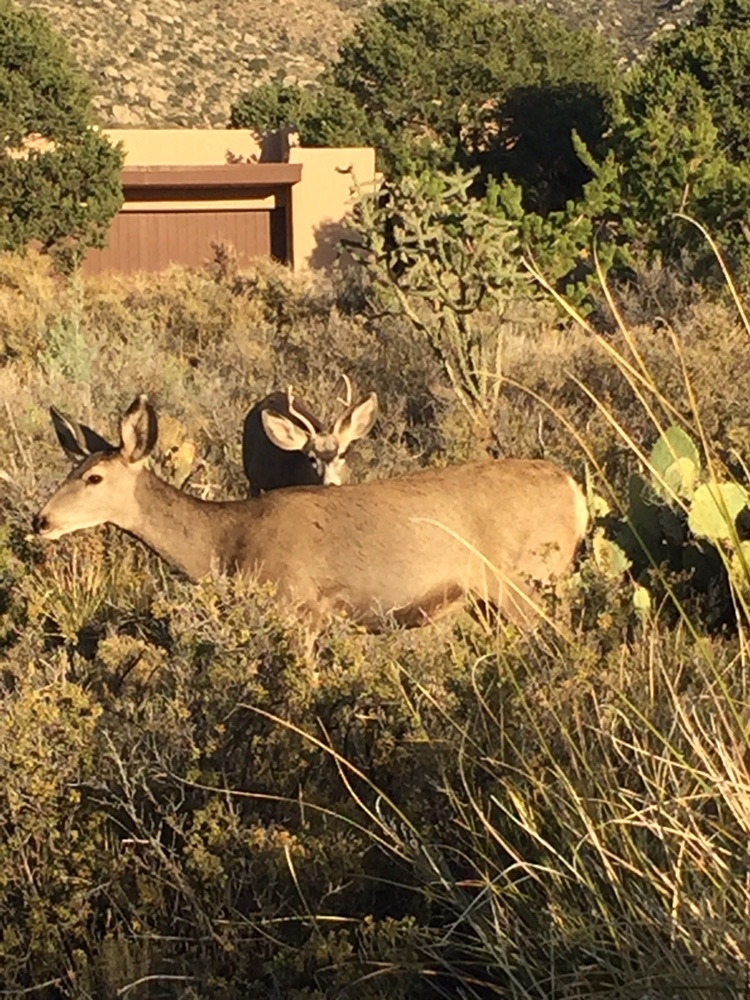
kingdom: Animalia
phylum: Chordata
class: Mammalia
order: Artiodactyla
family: Cervidae
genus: Odocoileus
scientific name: Odocoileus hemionus
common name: Mule deer
